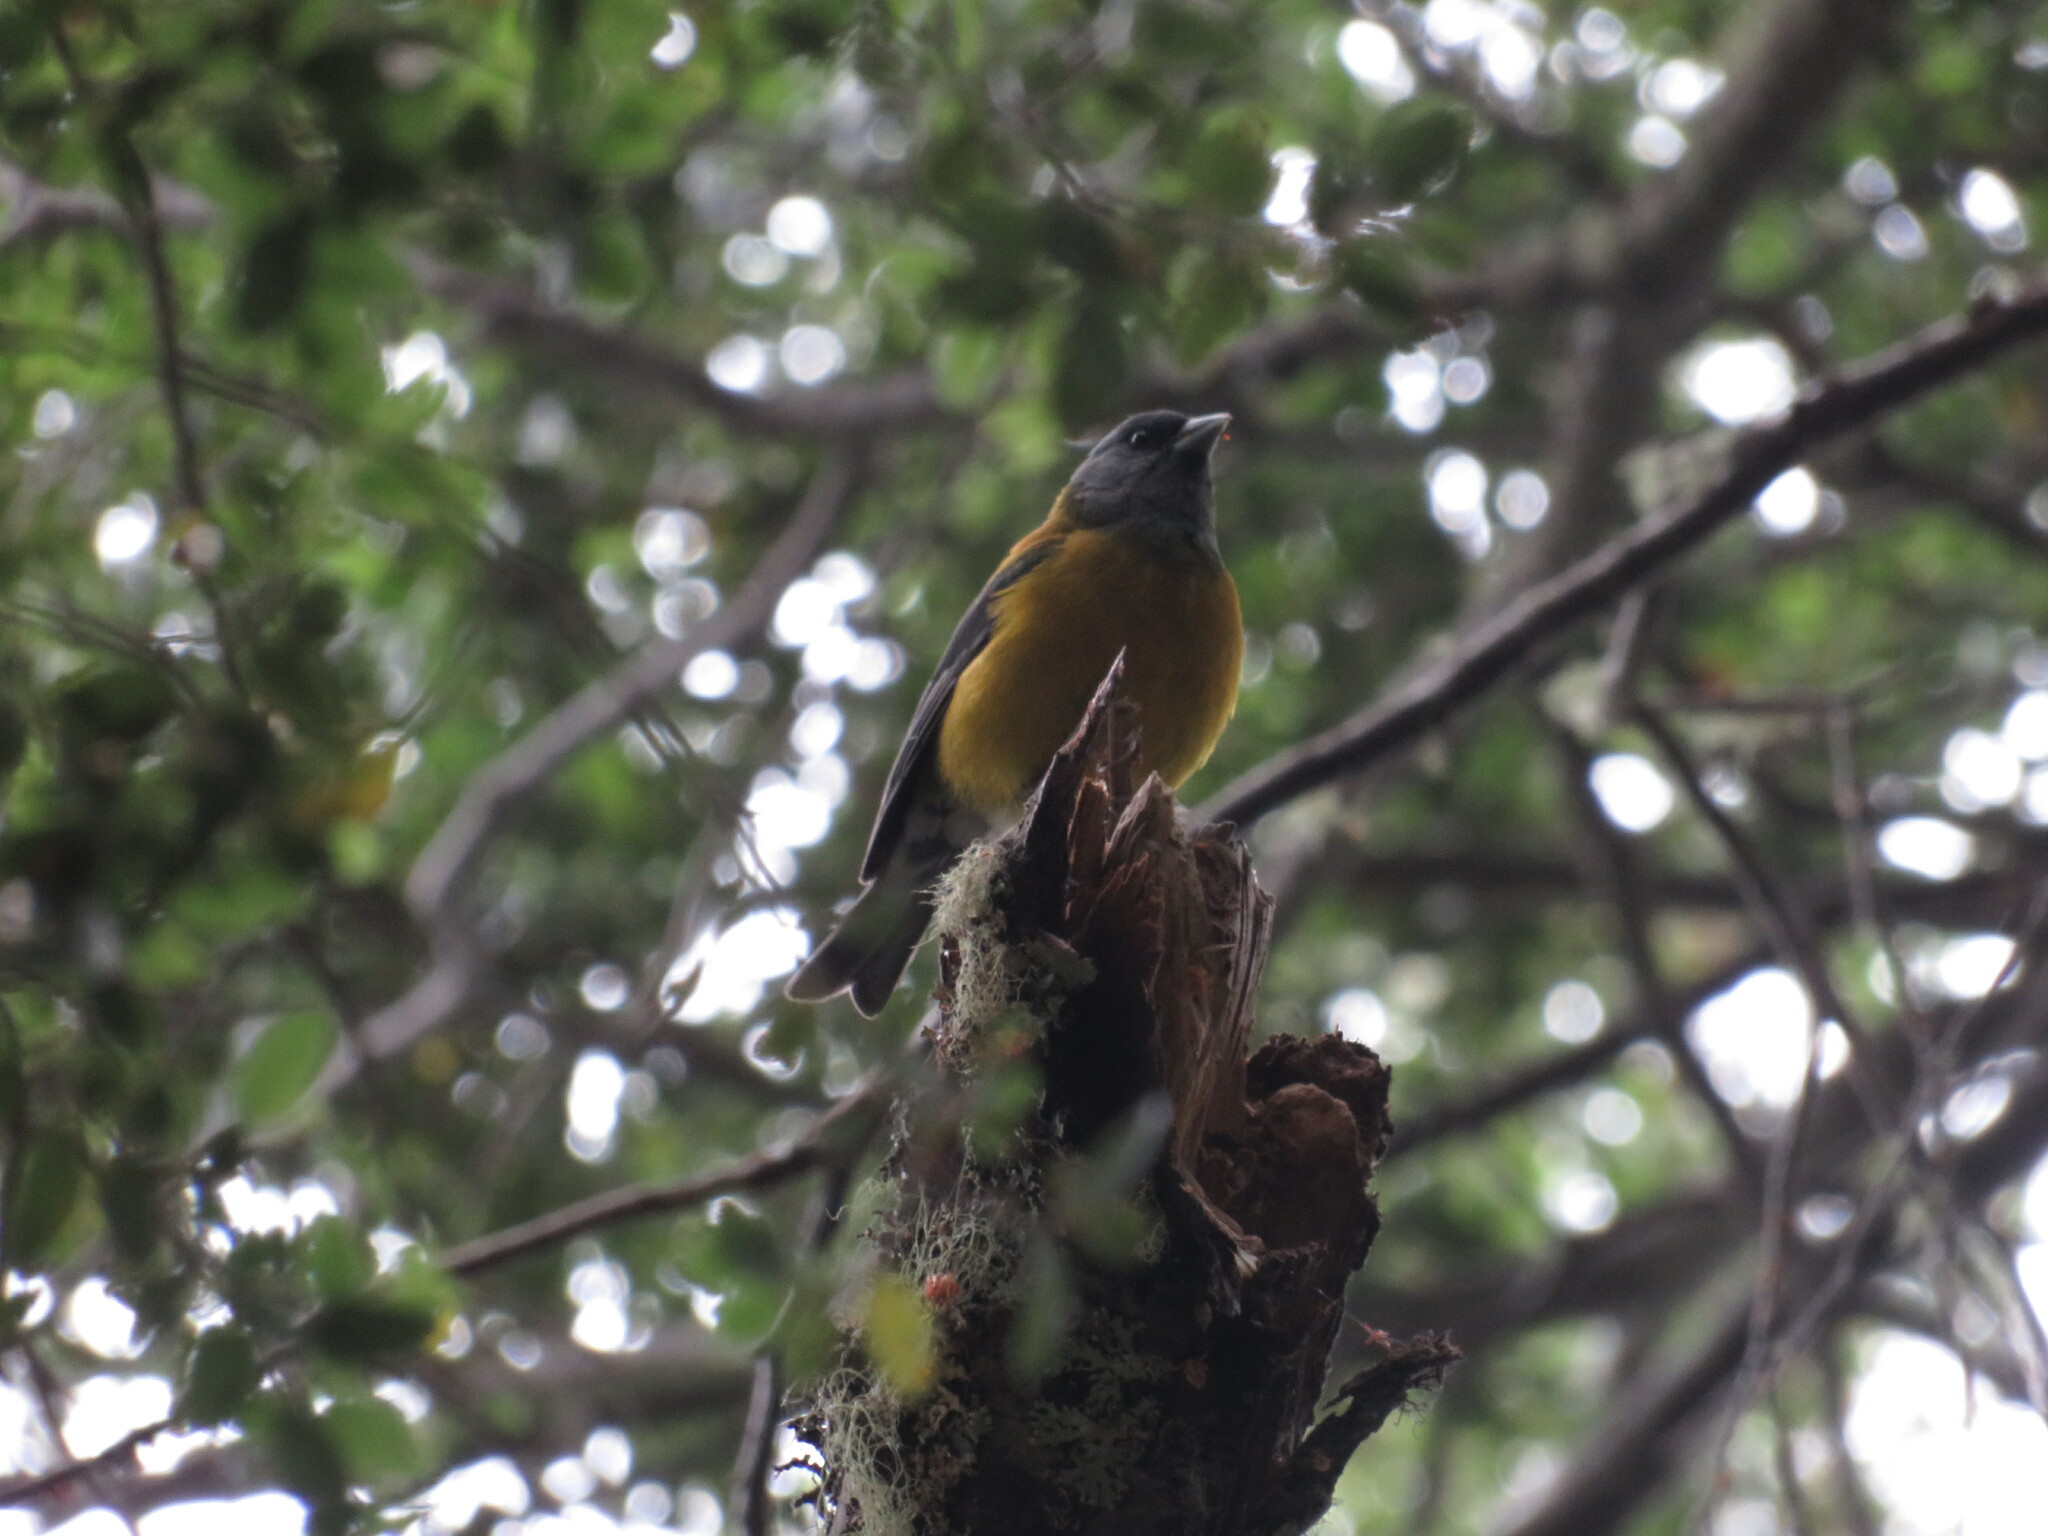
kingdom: Animalia
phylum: Chordata
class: Aves
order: Passeriformes
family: Thraupidae
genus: Phrygilus
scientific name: Phrygilus patagonicus
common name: Patagonian sierra finch
